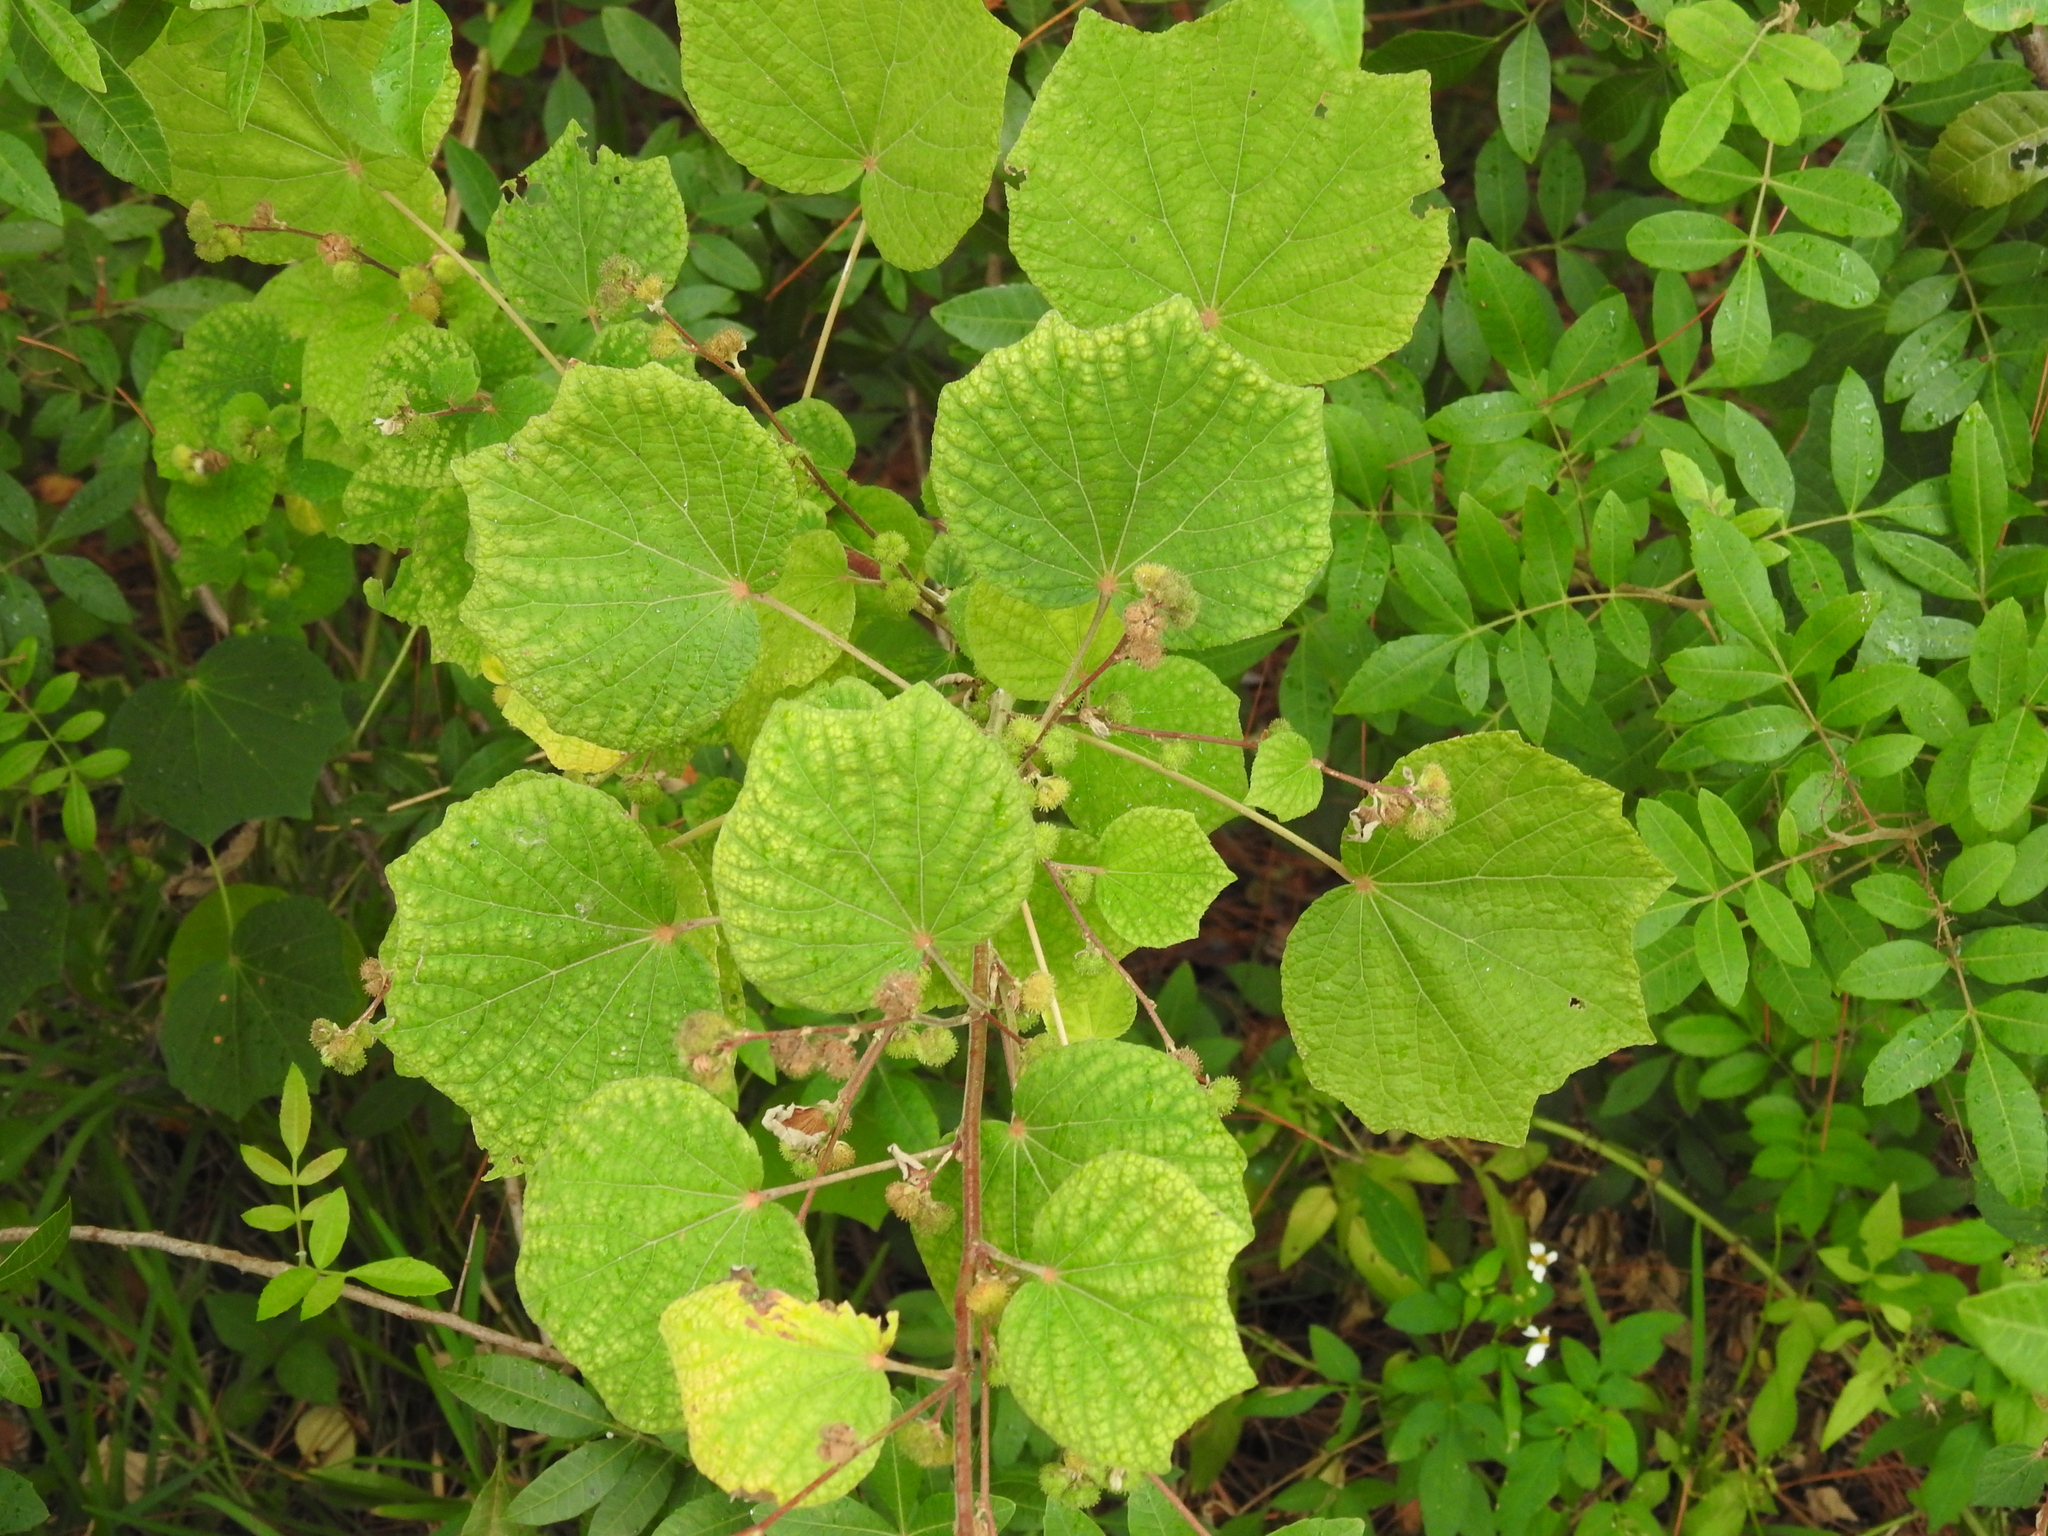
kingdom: Plantae
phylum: Tracheophyta
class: Magnoliopsida
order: Malvales
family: Malvaceae
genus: Urena
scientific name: Urena lobata
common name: Caesarweed
